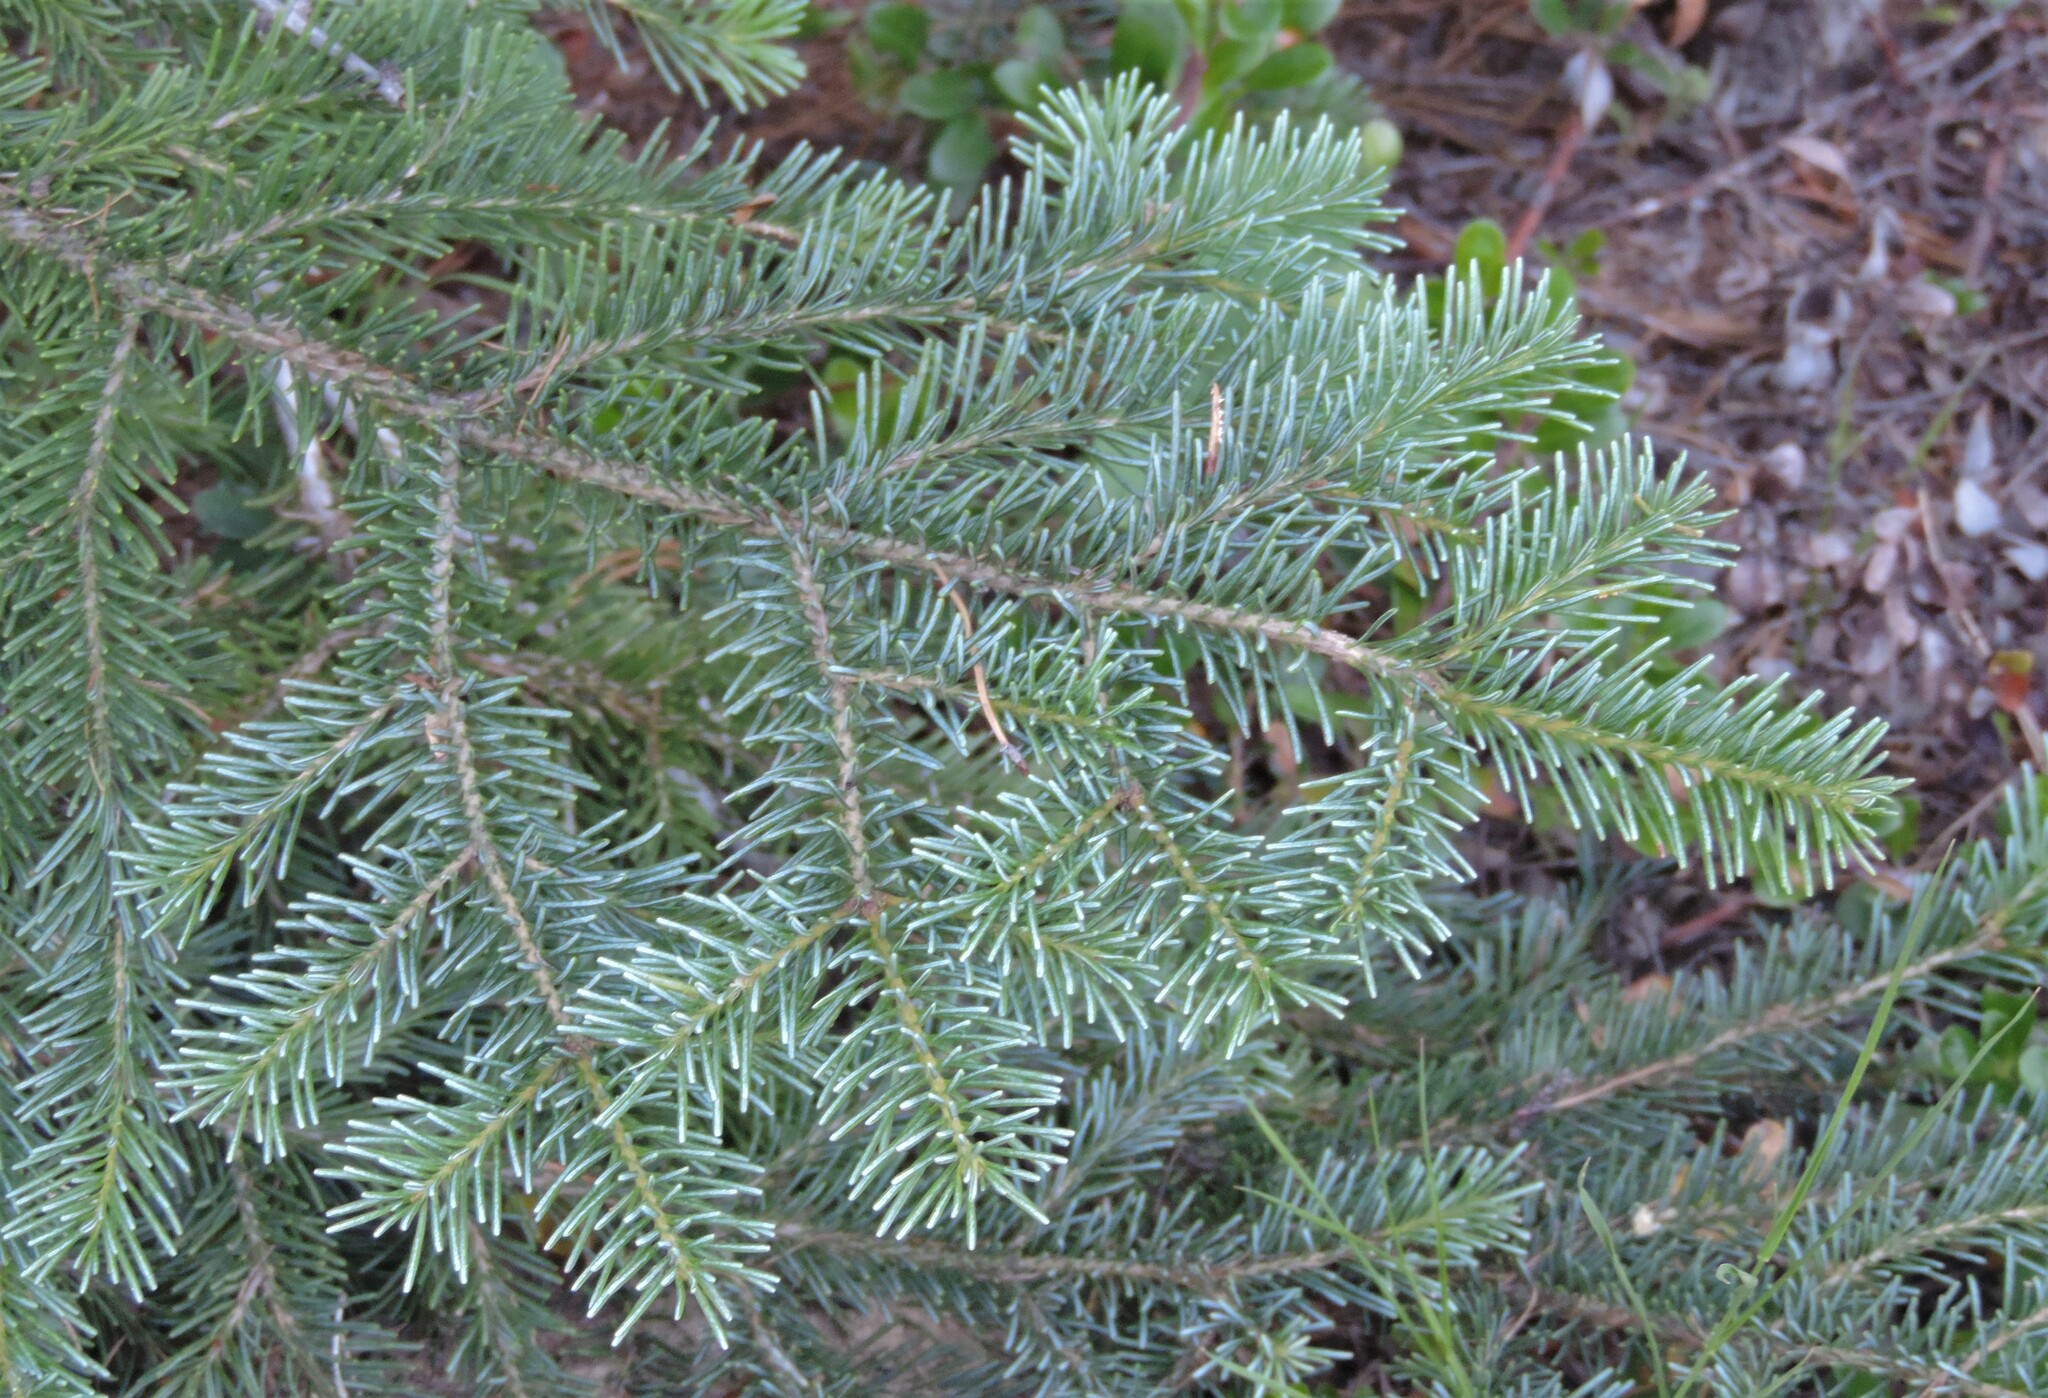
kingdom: Plantae
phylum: Tracheophyta
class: Pinopsida
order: Pinales
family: Pinaceae
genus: Picea
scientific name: Picea engelmannii
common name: Engelmann spruce
